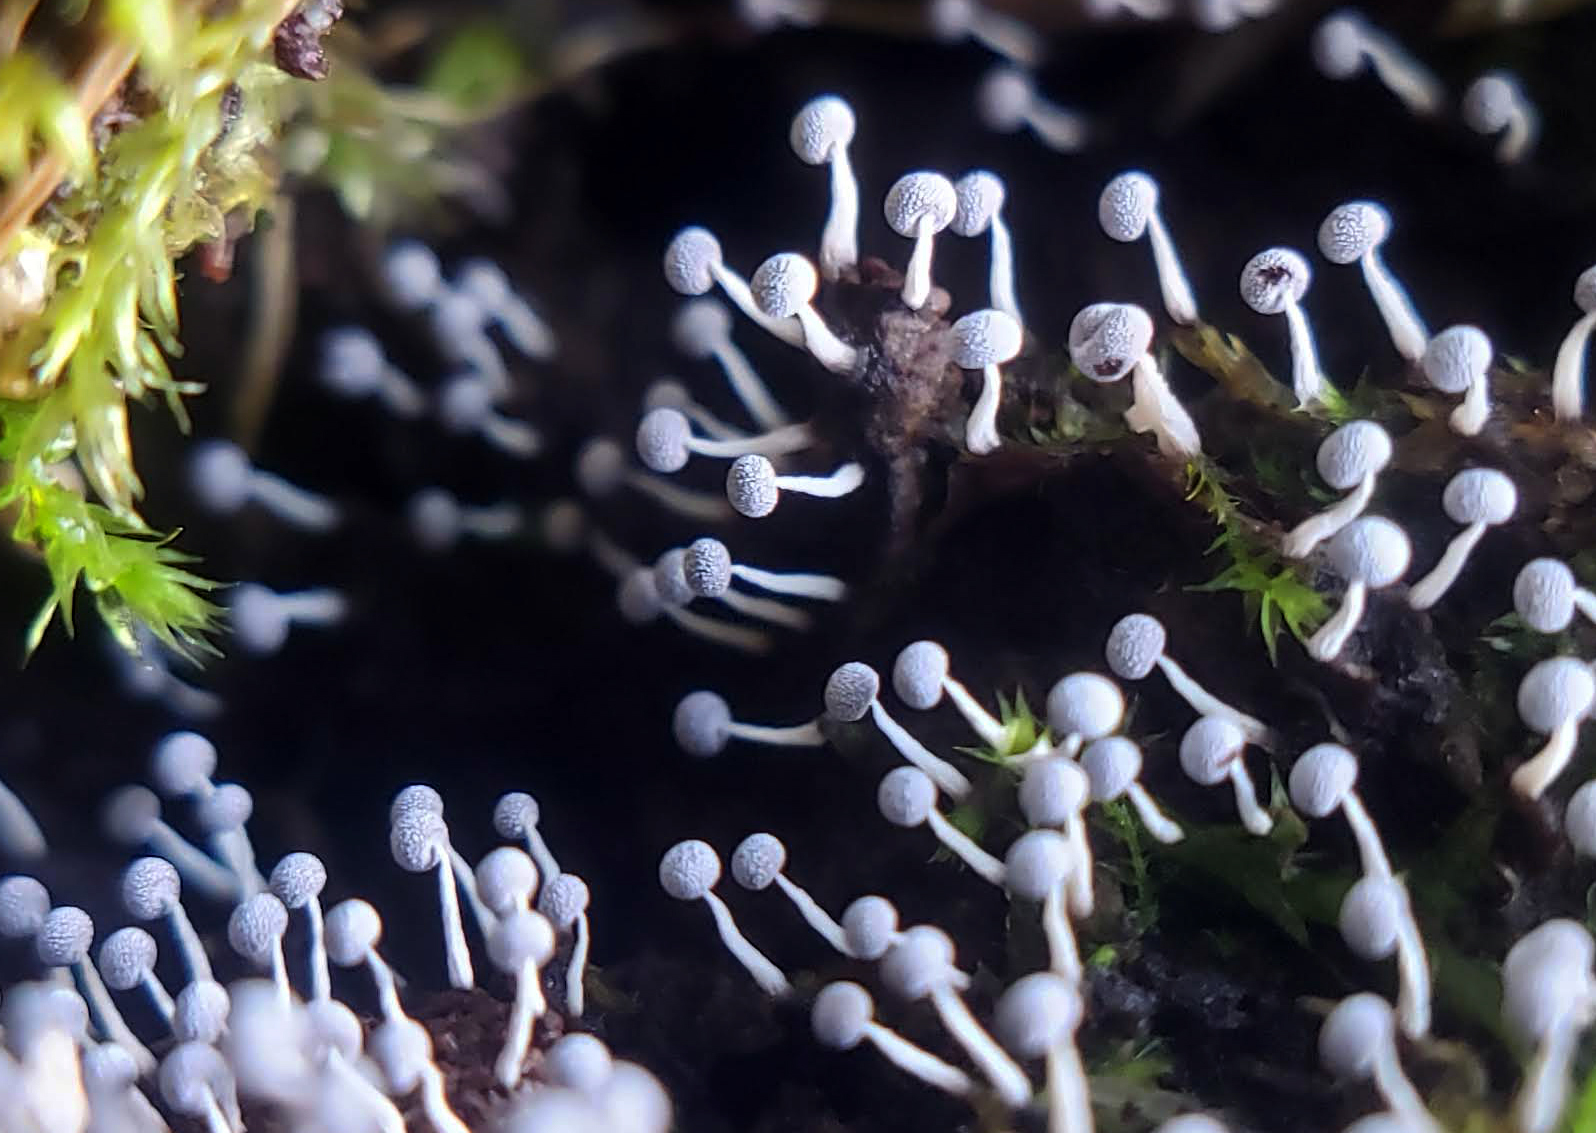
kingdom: Protozoa
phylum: Mycetozoa
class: Myxomycetes
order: Physarales
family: Physaraceae
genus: Physarum
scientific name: Physarum
